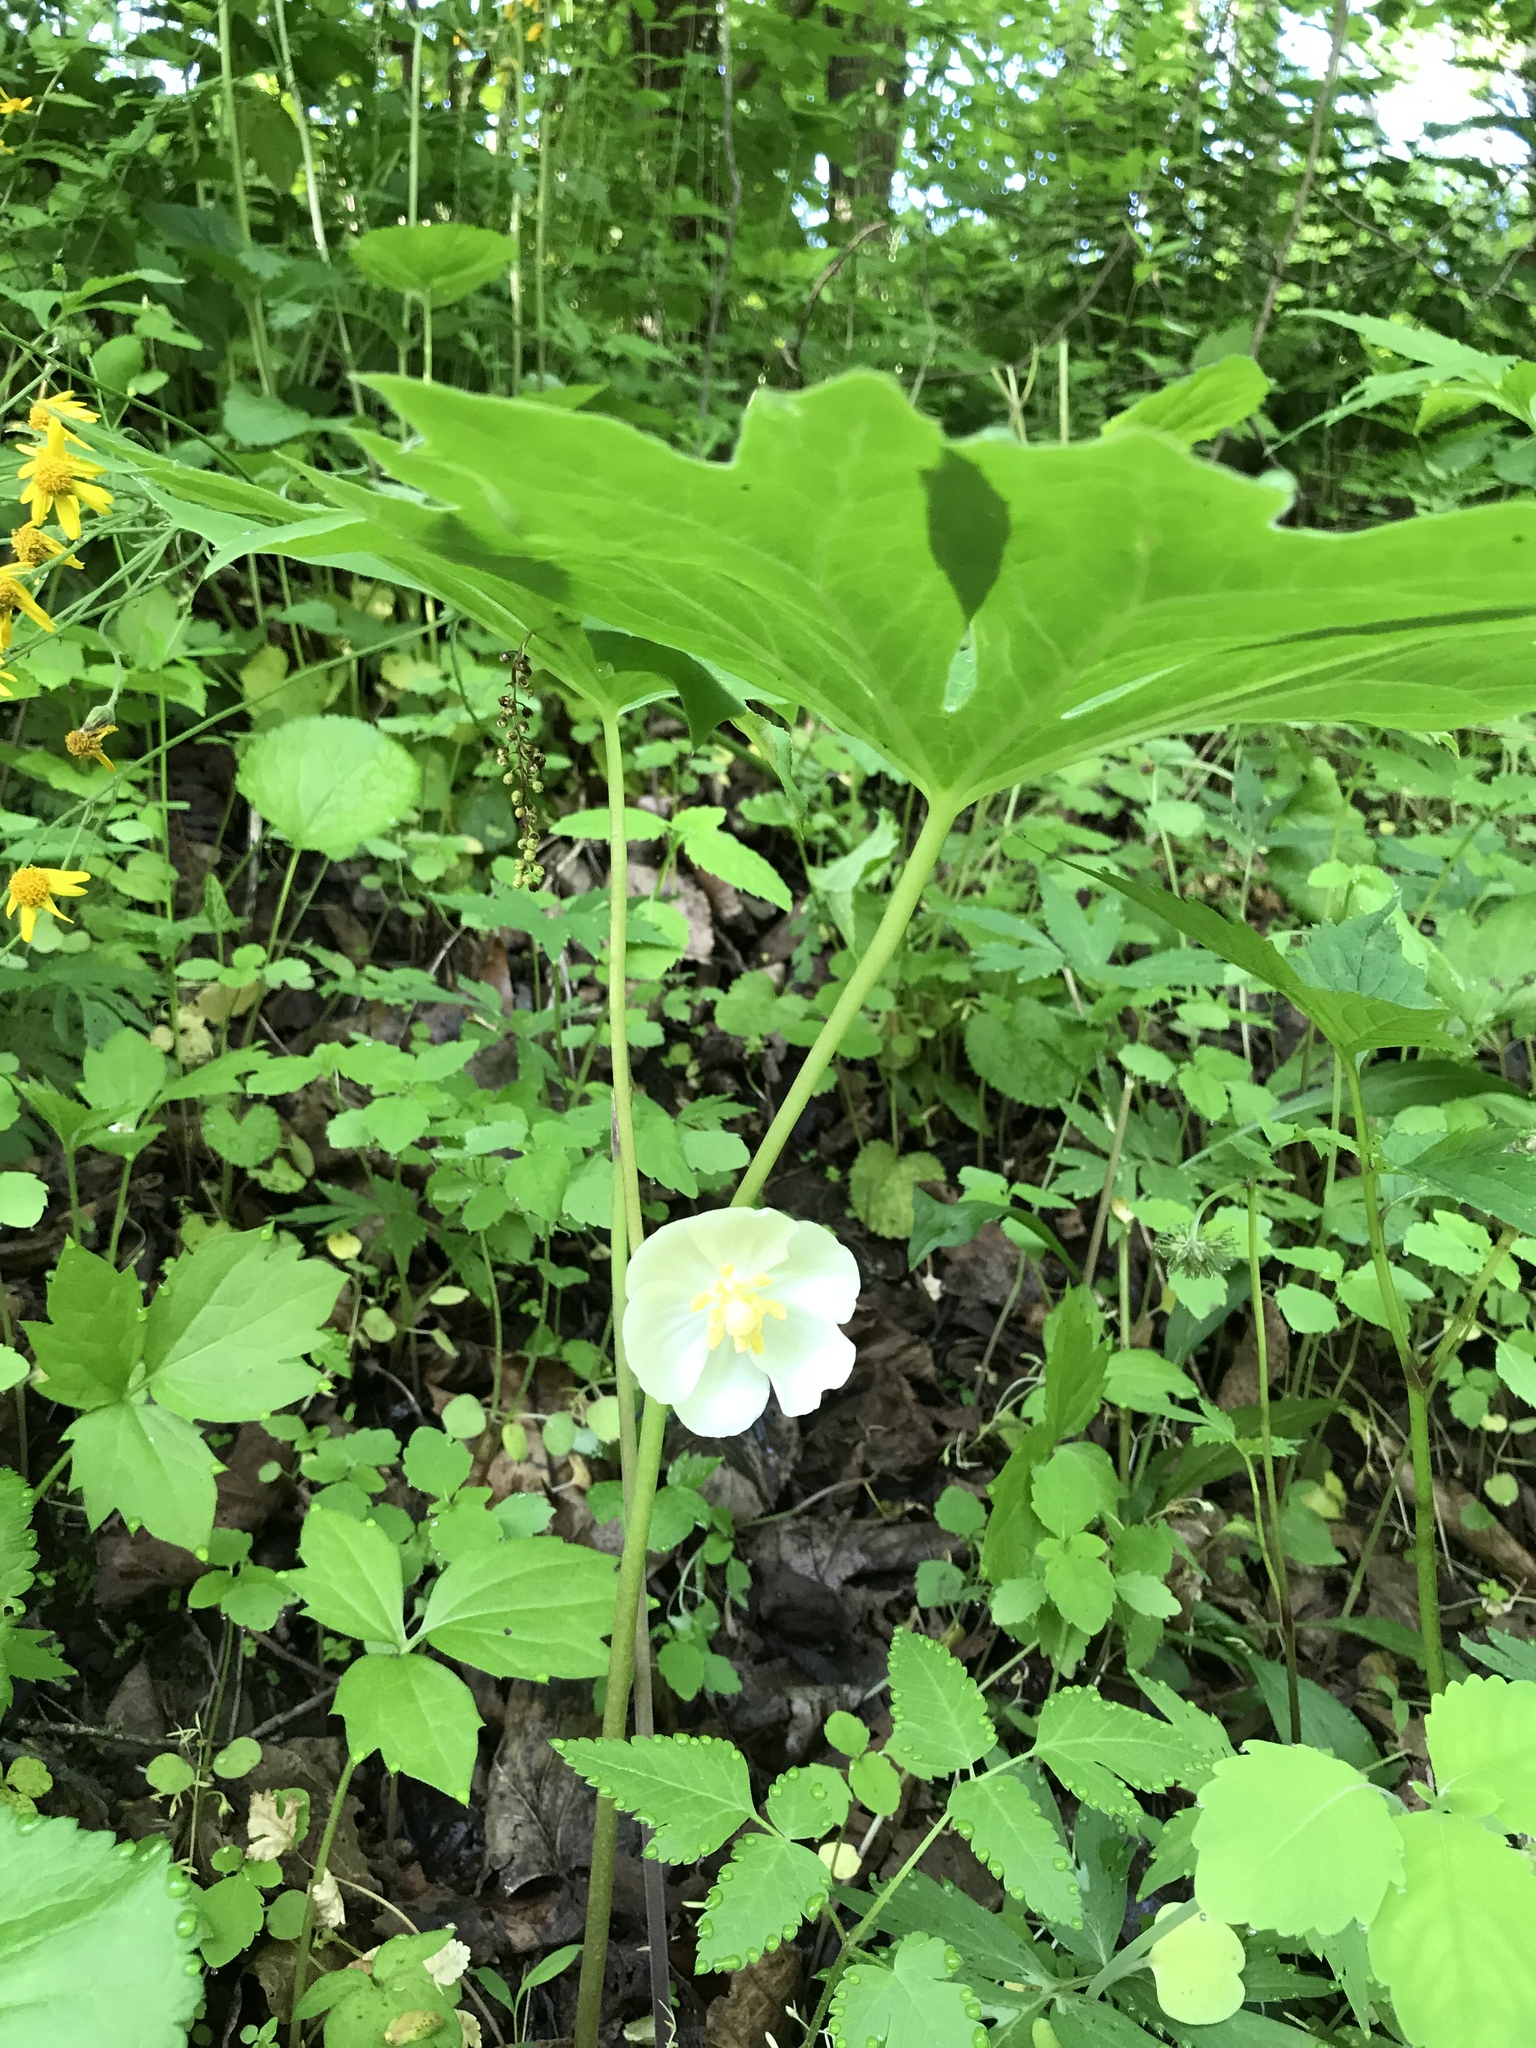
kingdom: Plantae
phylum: Tracheophyta
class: Magnoliopsida
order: Ranunculales
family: Berberidaceae
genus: Podophyllum
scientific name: Podophyllum peltatum
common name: Wild mandrake
